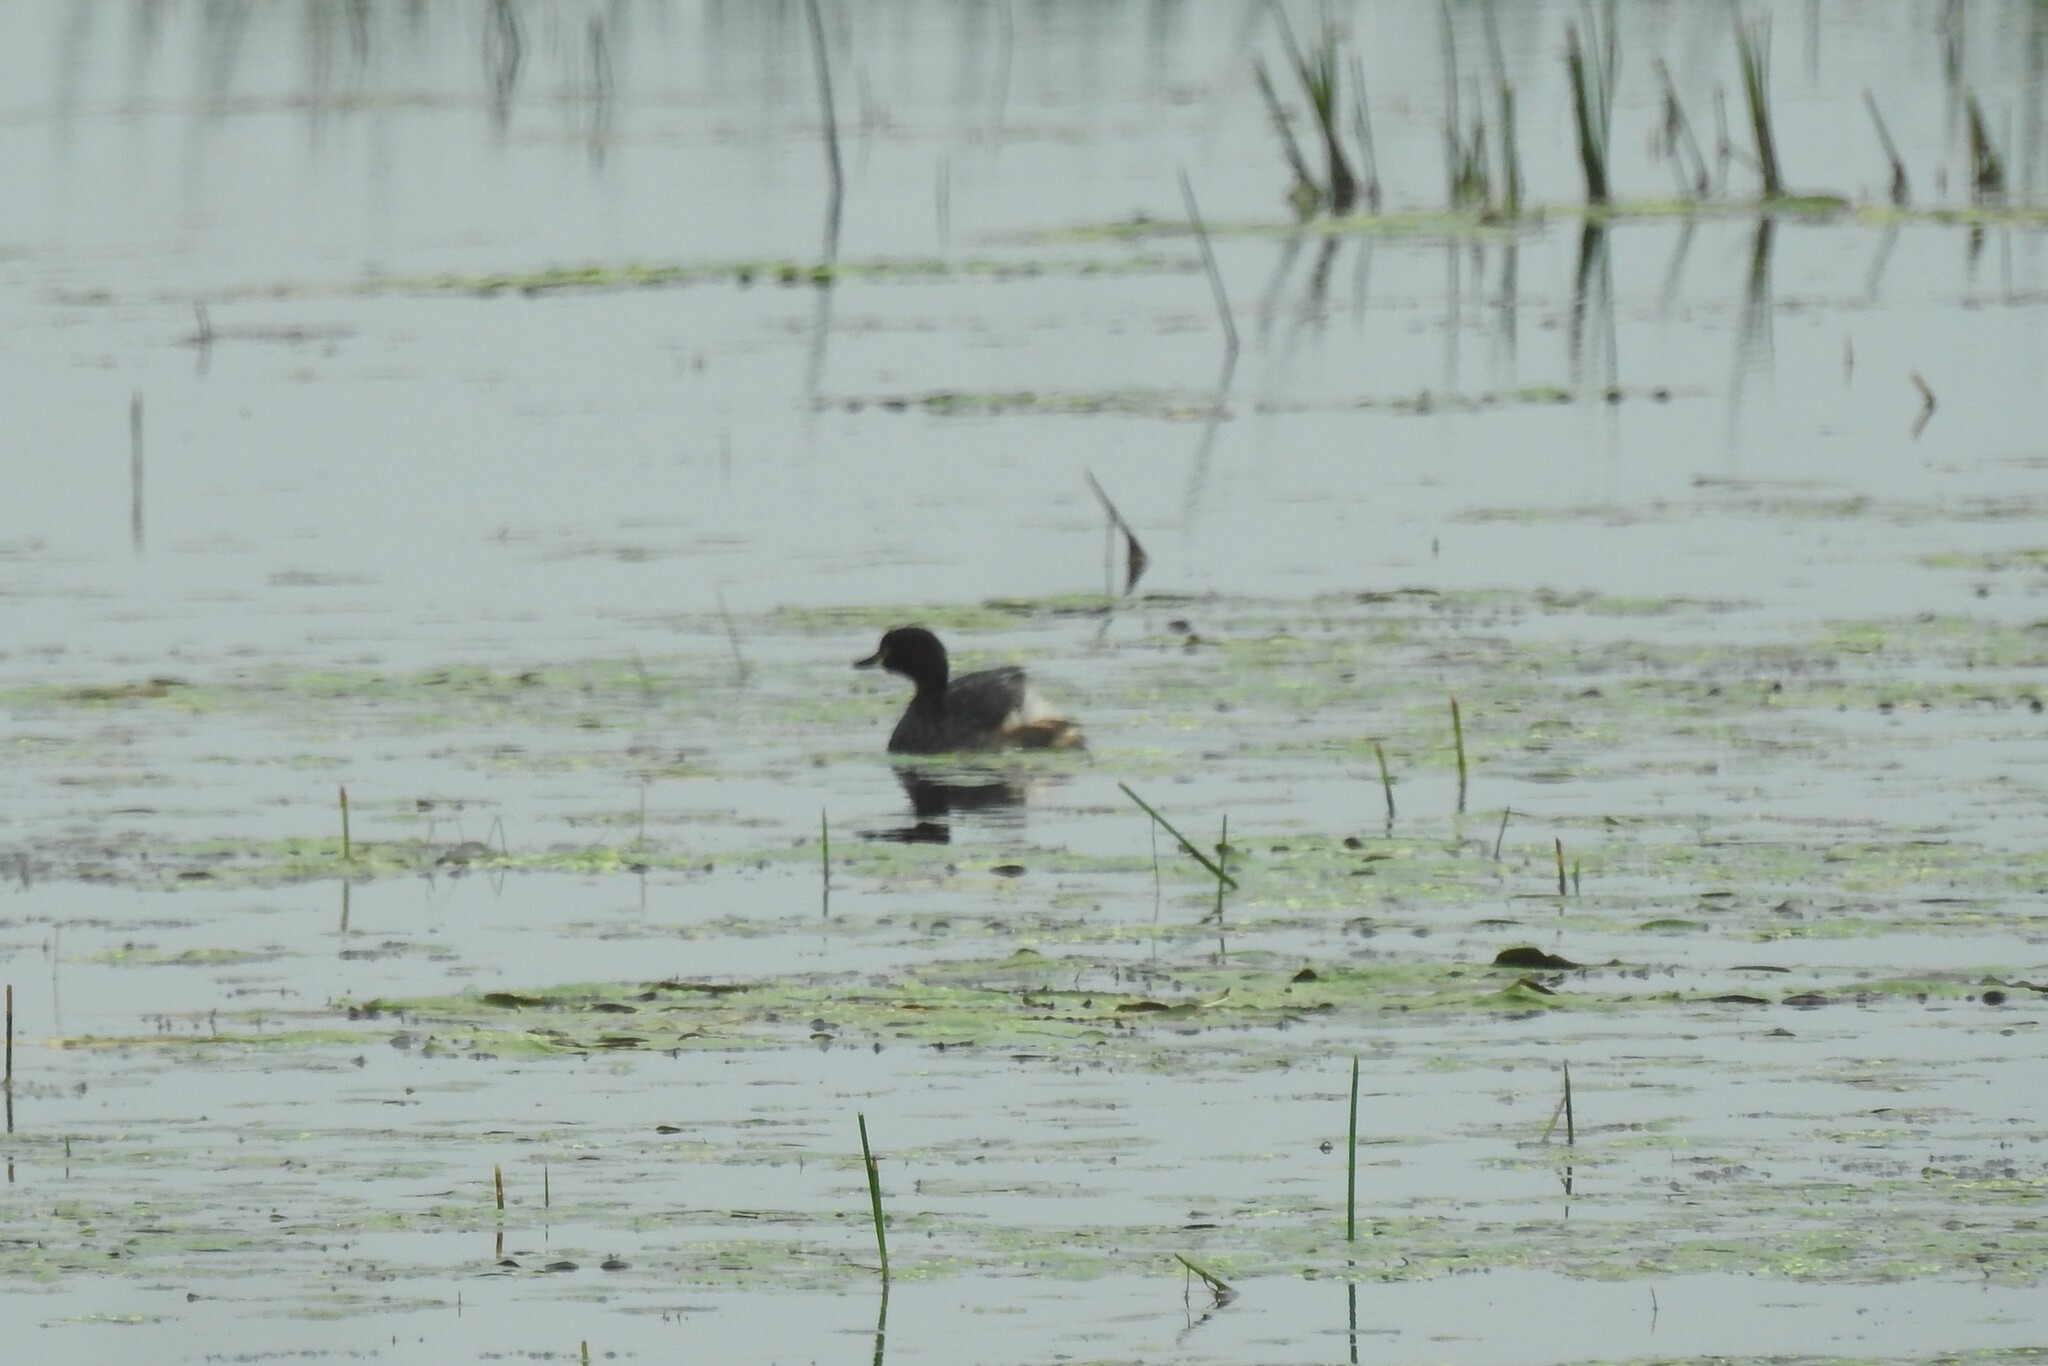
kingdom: Animalia
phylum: Chordata
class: Aves
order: Podicipediformes
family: Podicipedidae
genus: Tachybaptus
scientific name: Tachybaptus ruficollis
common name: Little grebe
